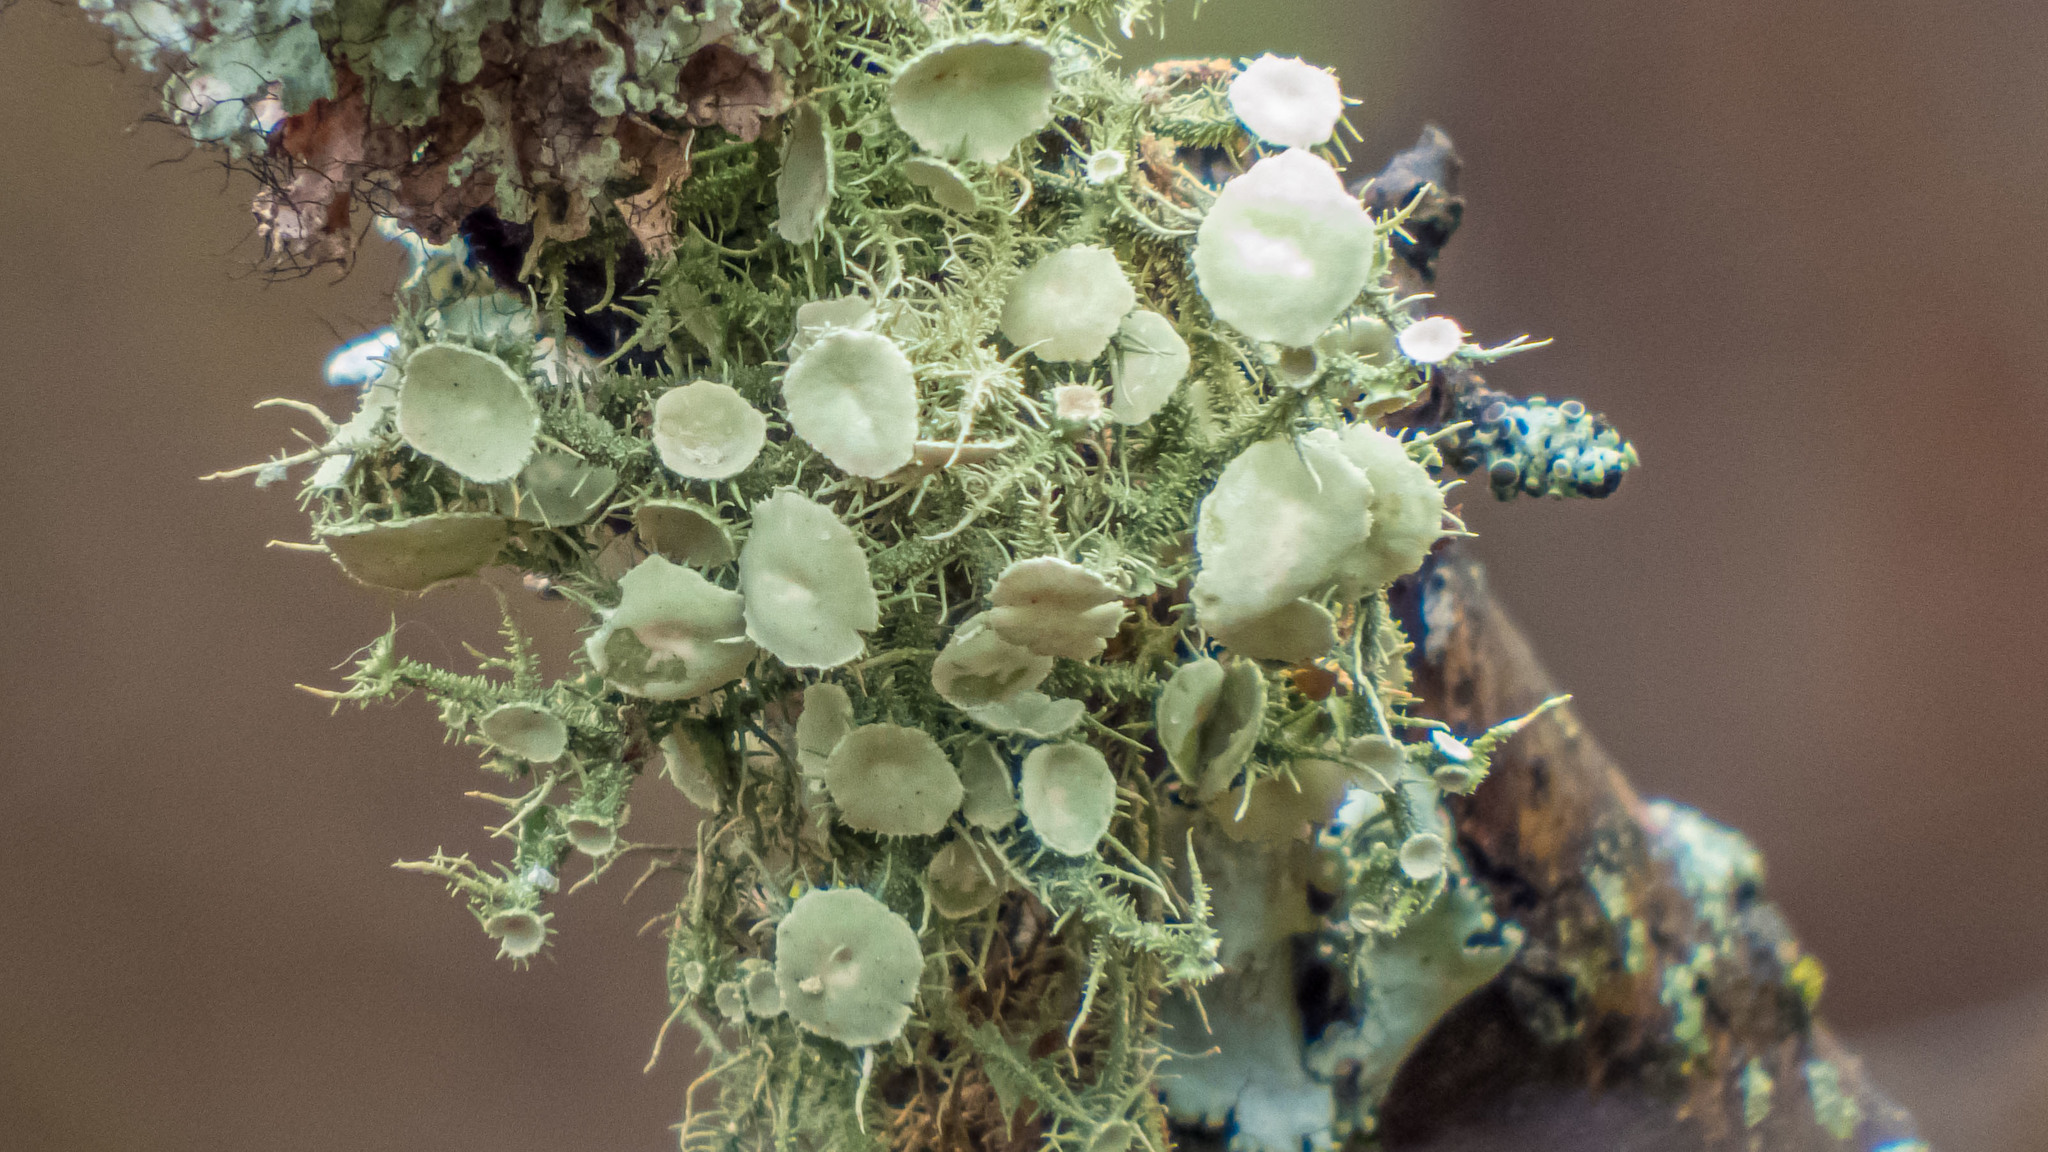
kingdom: Fungi
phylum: Ascomycota
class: Lecanoromycetes
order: Lecanorales
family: Parmeliaceae
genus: Usnea
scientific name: Usnea strigosa
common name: Bushy beard lichen
